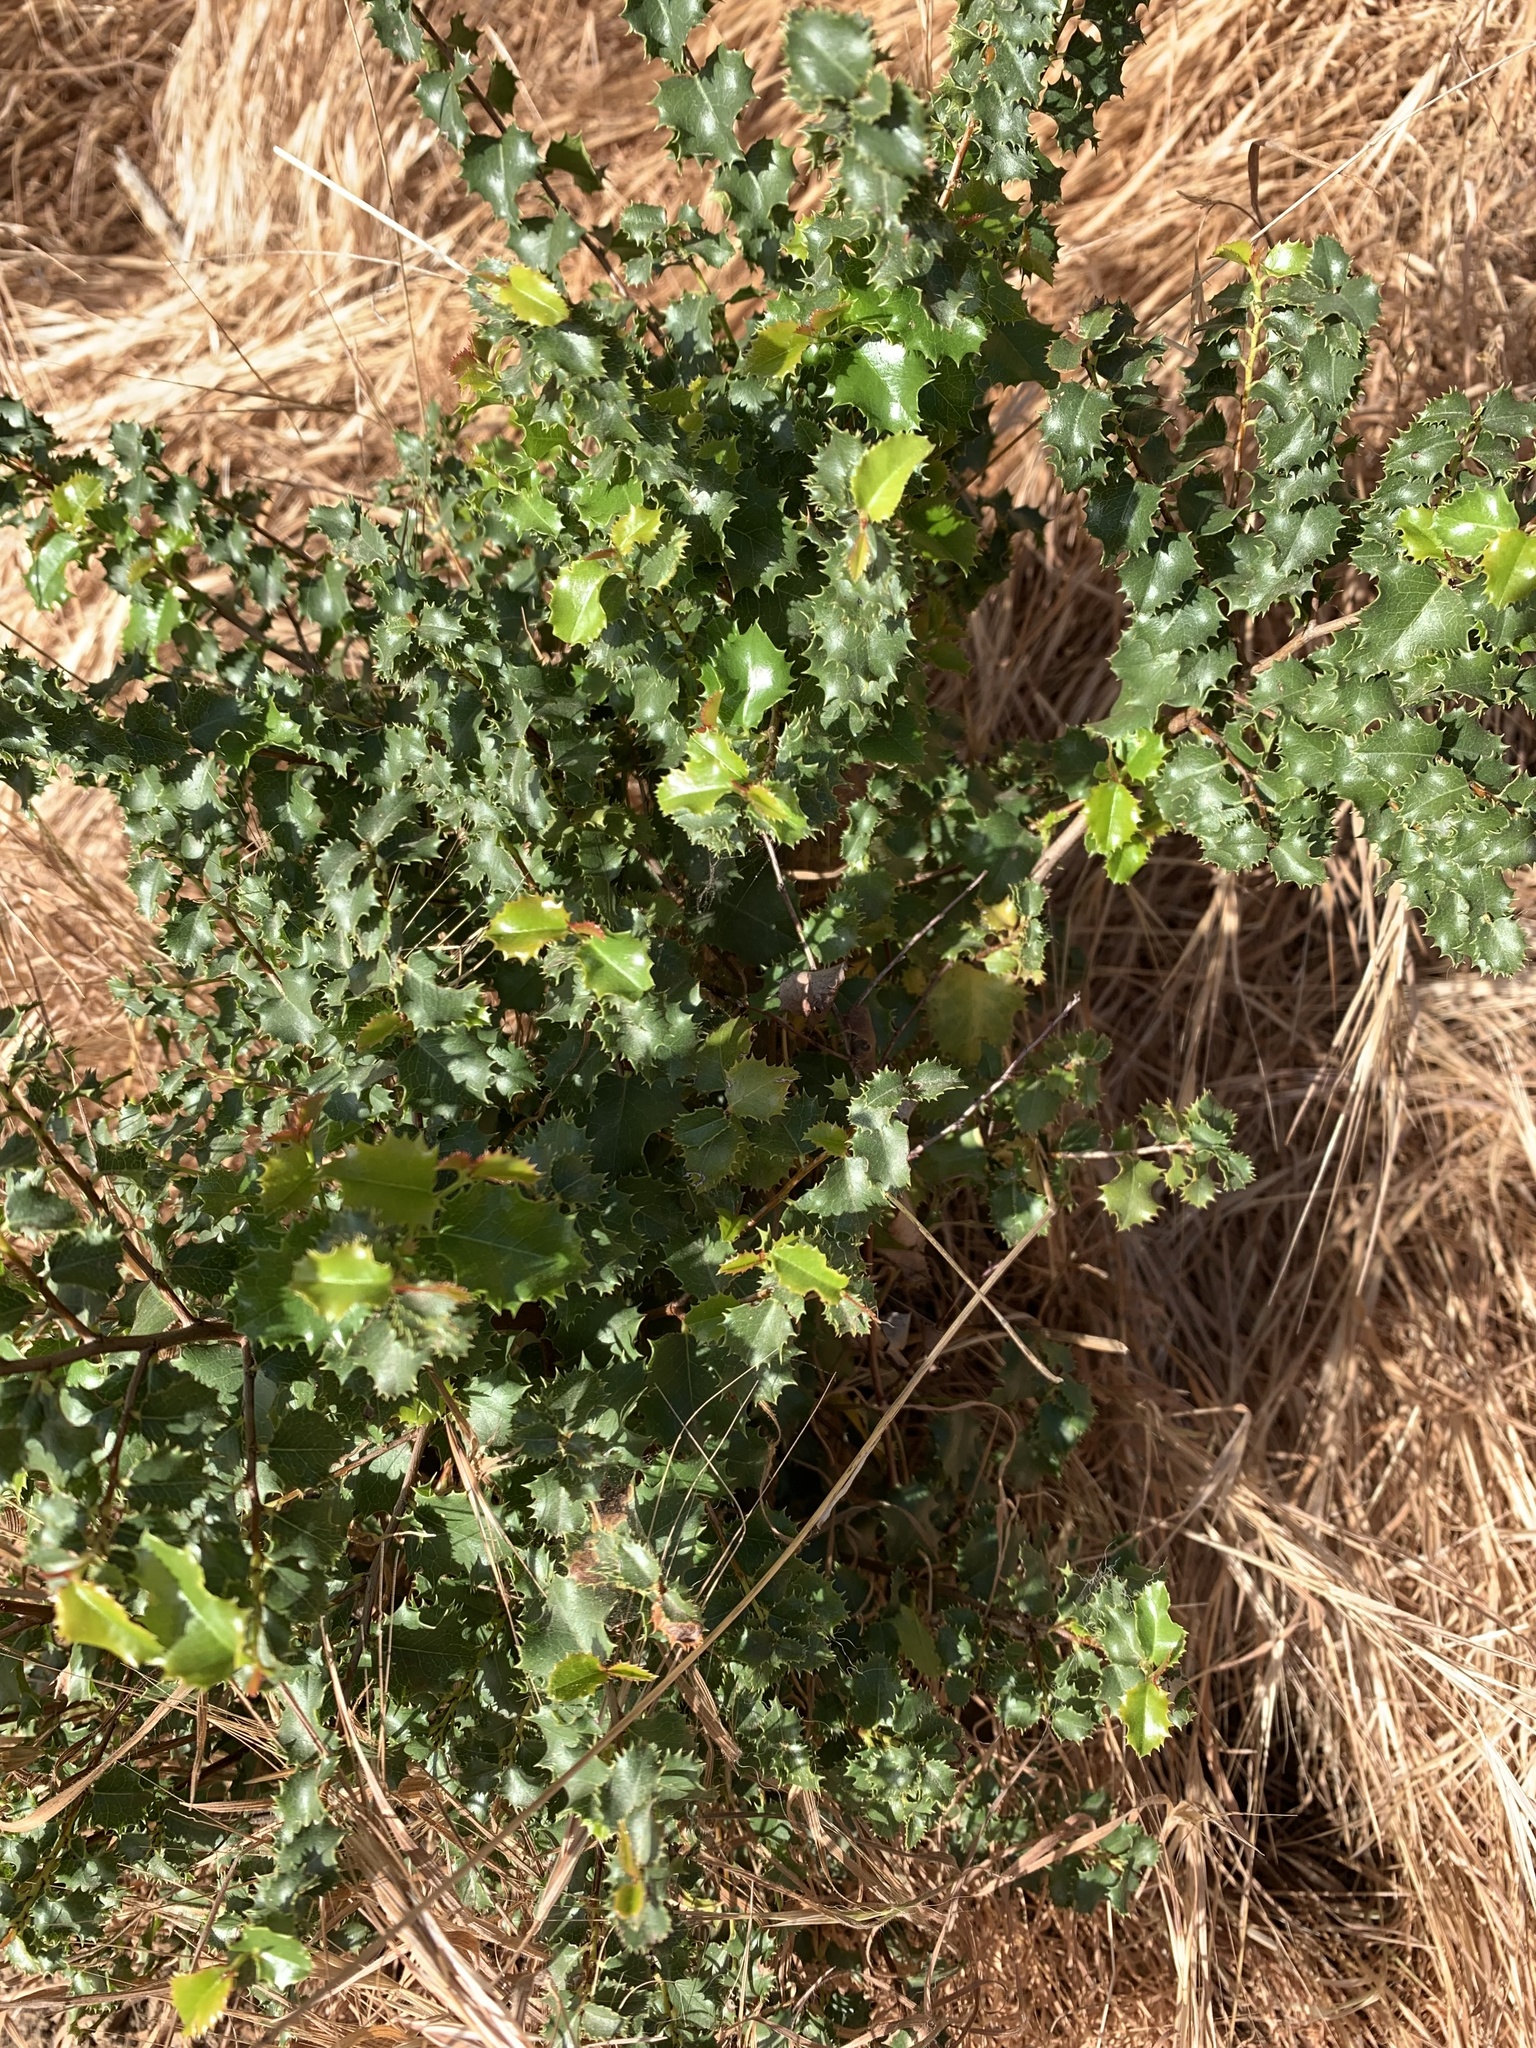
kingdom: Plantae
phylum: Tracheophyta
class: Magnoliopsida
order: Rosales
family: Rhamnaceae
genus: Endotropis
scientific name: Endotropis crocea
